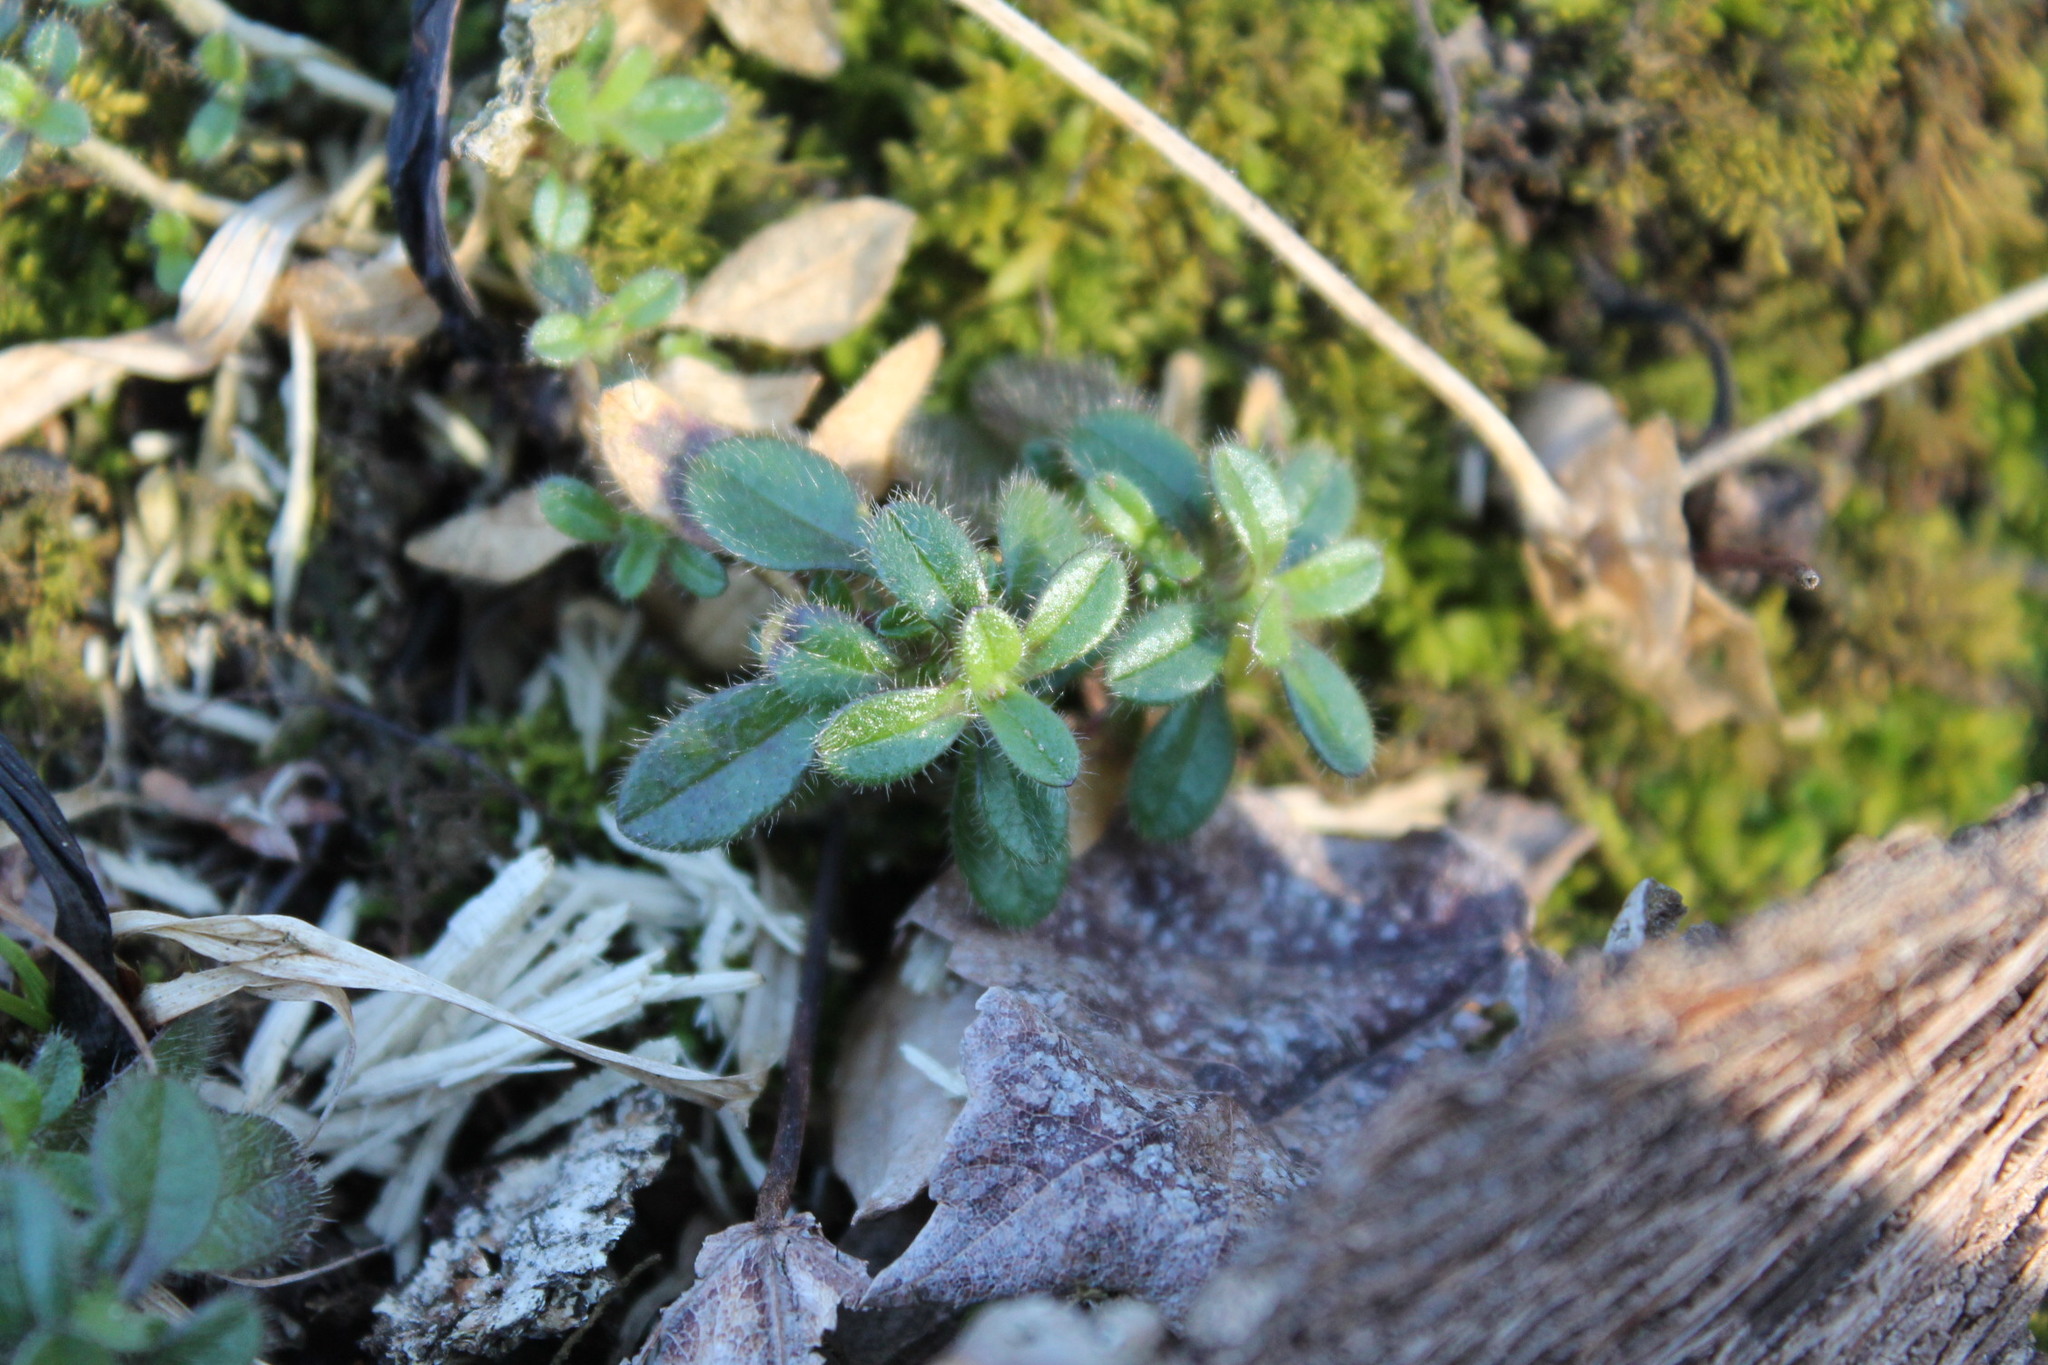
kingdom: Plantae
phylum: Tracheophyta
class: Magnoliopsida
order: Caryophyllales
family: Caryophyllaceae
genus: Cerastium
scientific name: Cerastium fontanum
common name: Common mouse-ear
